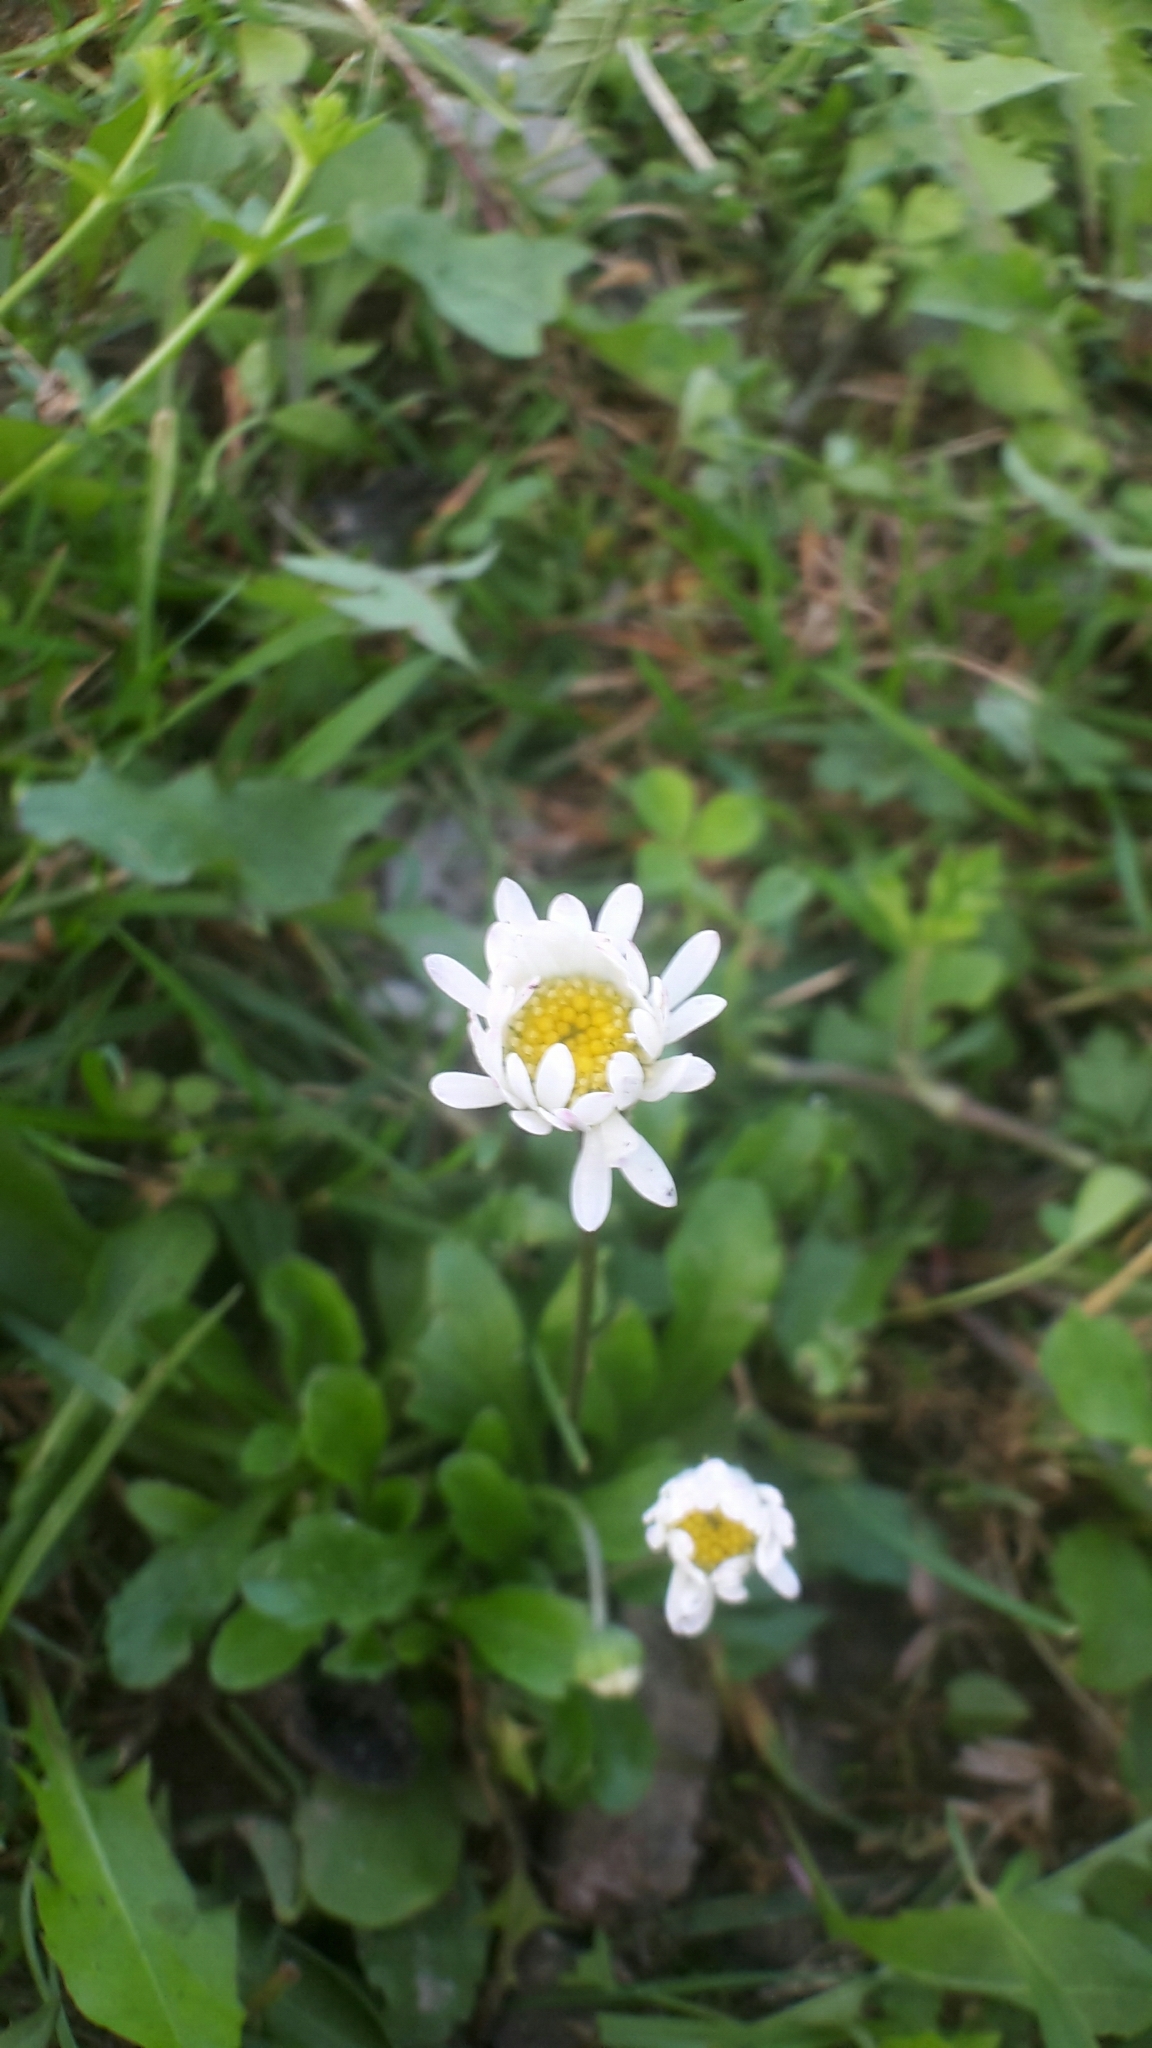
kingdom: Plantae
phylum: Tracheophyta
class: Magnoliopsida
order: Asterales
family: Asteraceae
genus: Bellis
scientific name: Bellis perennis
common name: Lawndaisy
